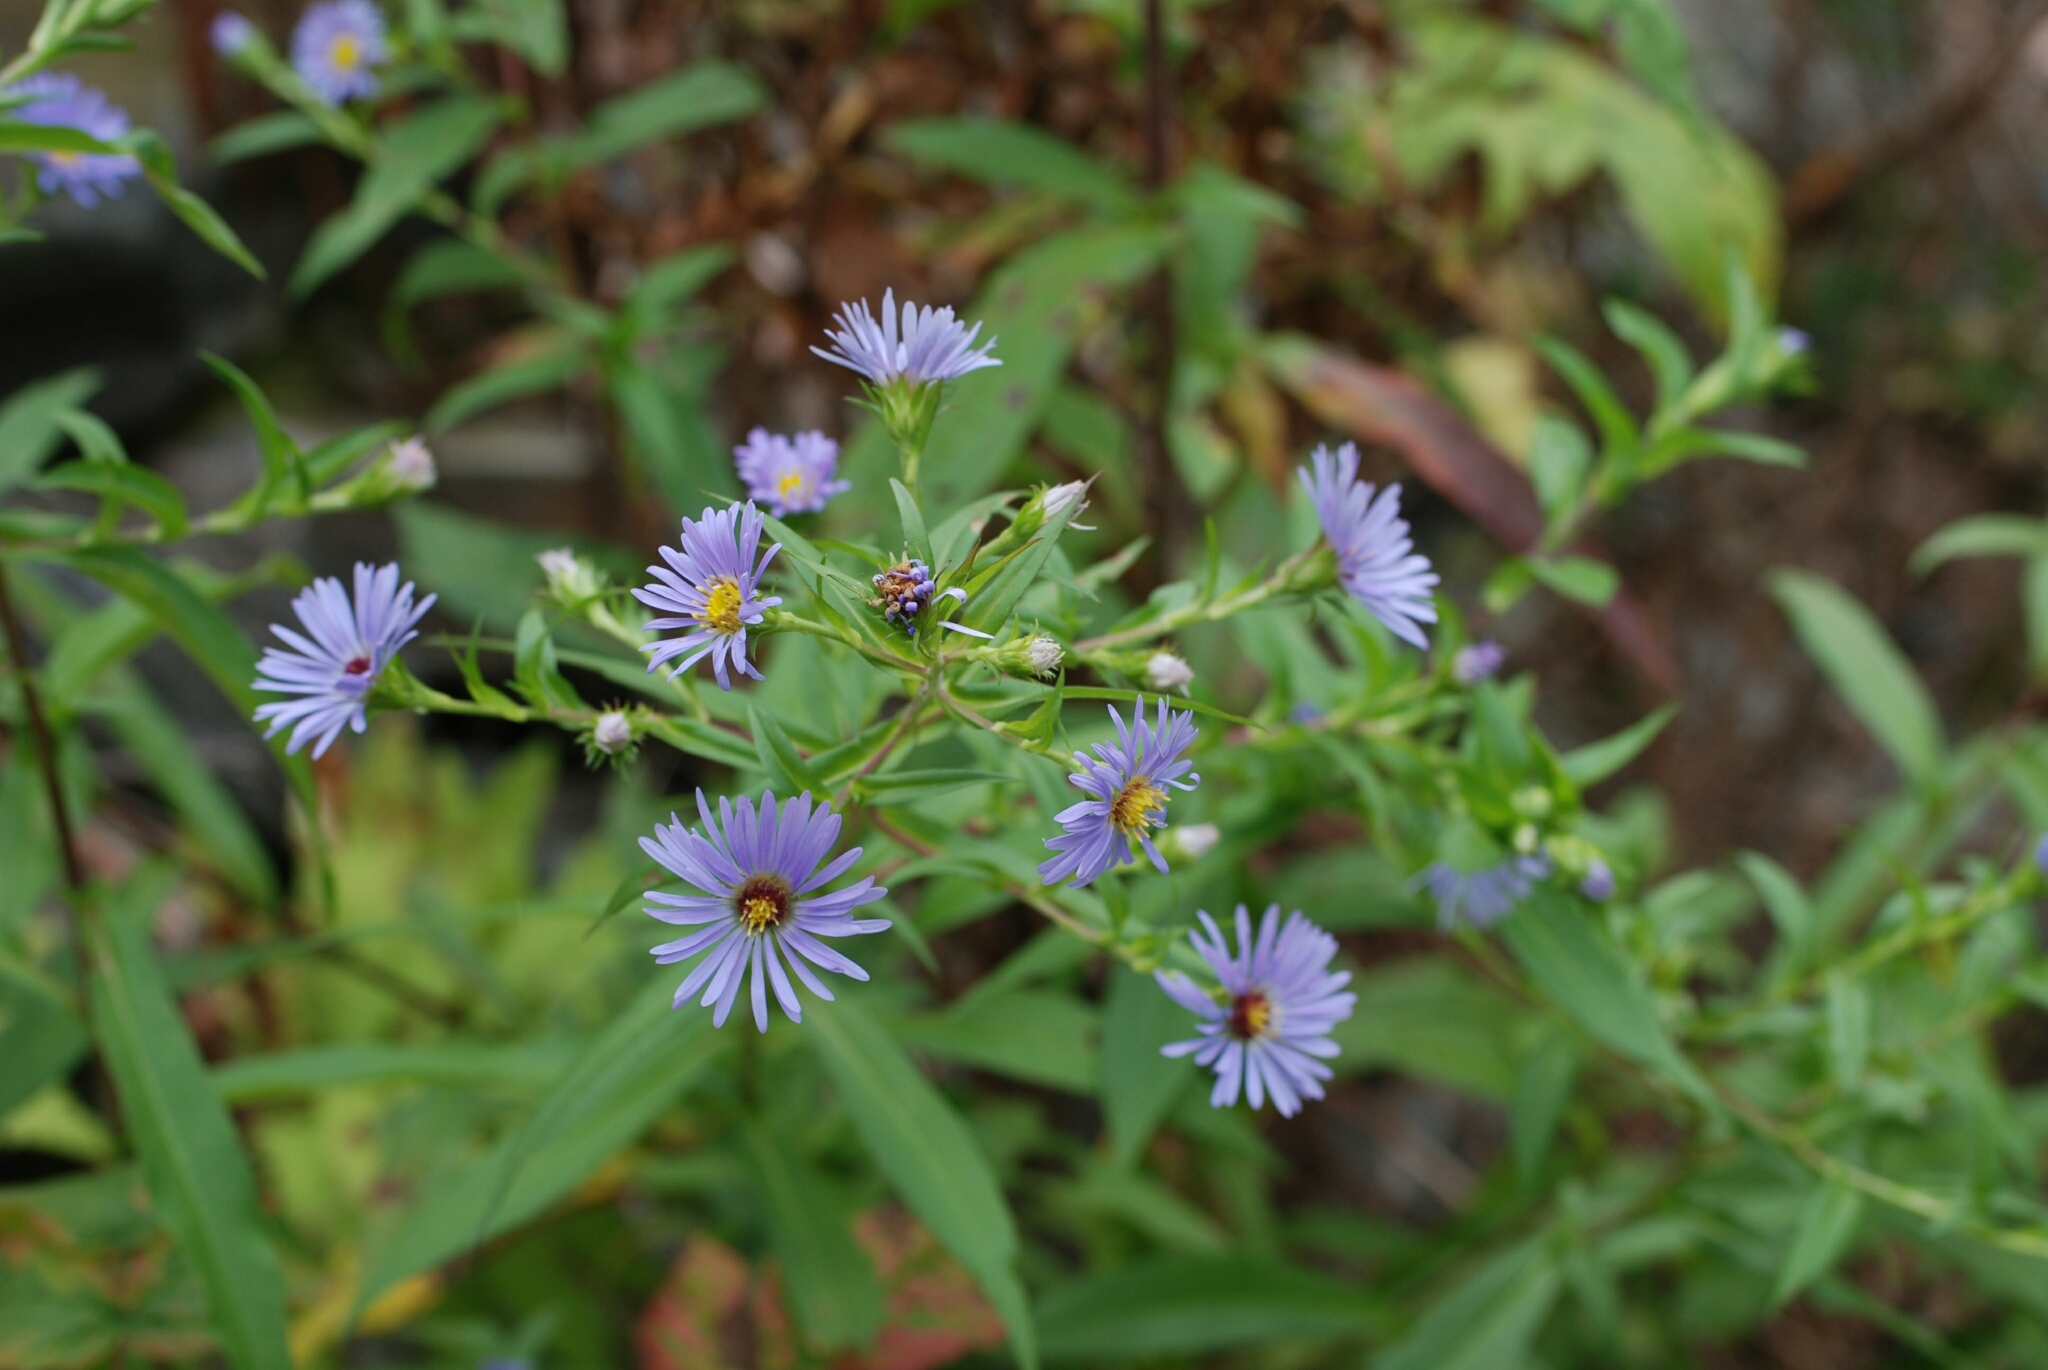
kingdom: Plantae
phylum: Tracheophyta
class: Magnoliopsida
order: Asterales
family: Asteraceae
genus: Symphyotrichum
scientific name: Symphyotrichum puniceum
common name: Bog aster
